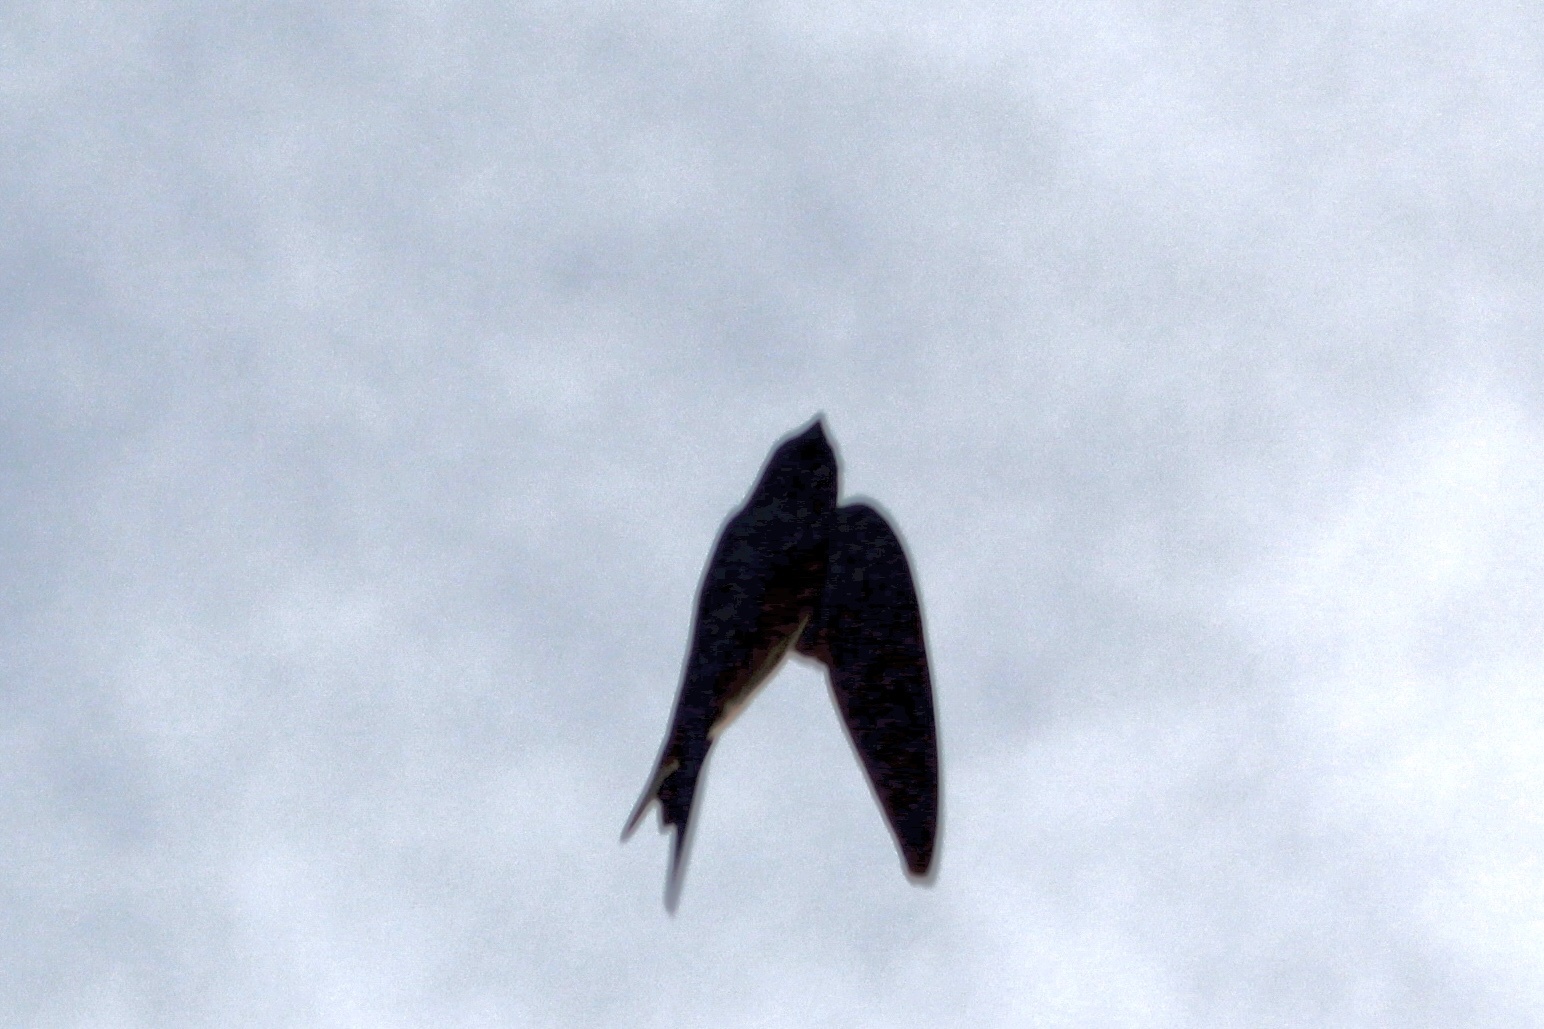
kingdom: Animalia
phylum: Chordata
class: Aves
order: Passeriformes
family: Hirundinidae
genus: Hirundo
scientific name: Hirundo rustica
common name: Barn swallow
